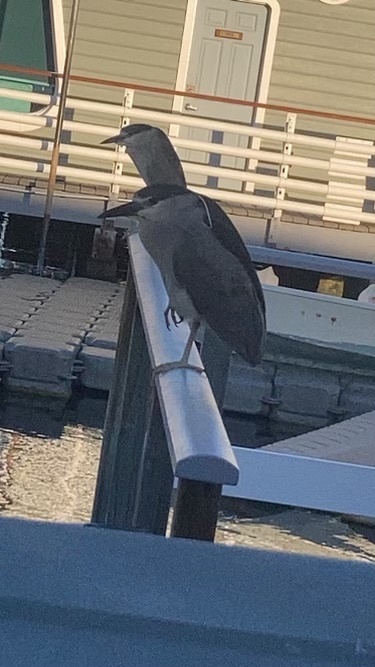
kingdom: Animalia
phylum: Chordata
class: Aves
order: Pelecaniformes
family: Ardeidae
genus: Nycticorax
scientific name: Nycticorax nycticorax
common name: Black-crowned night heron
